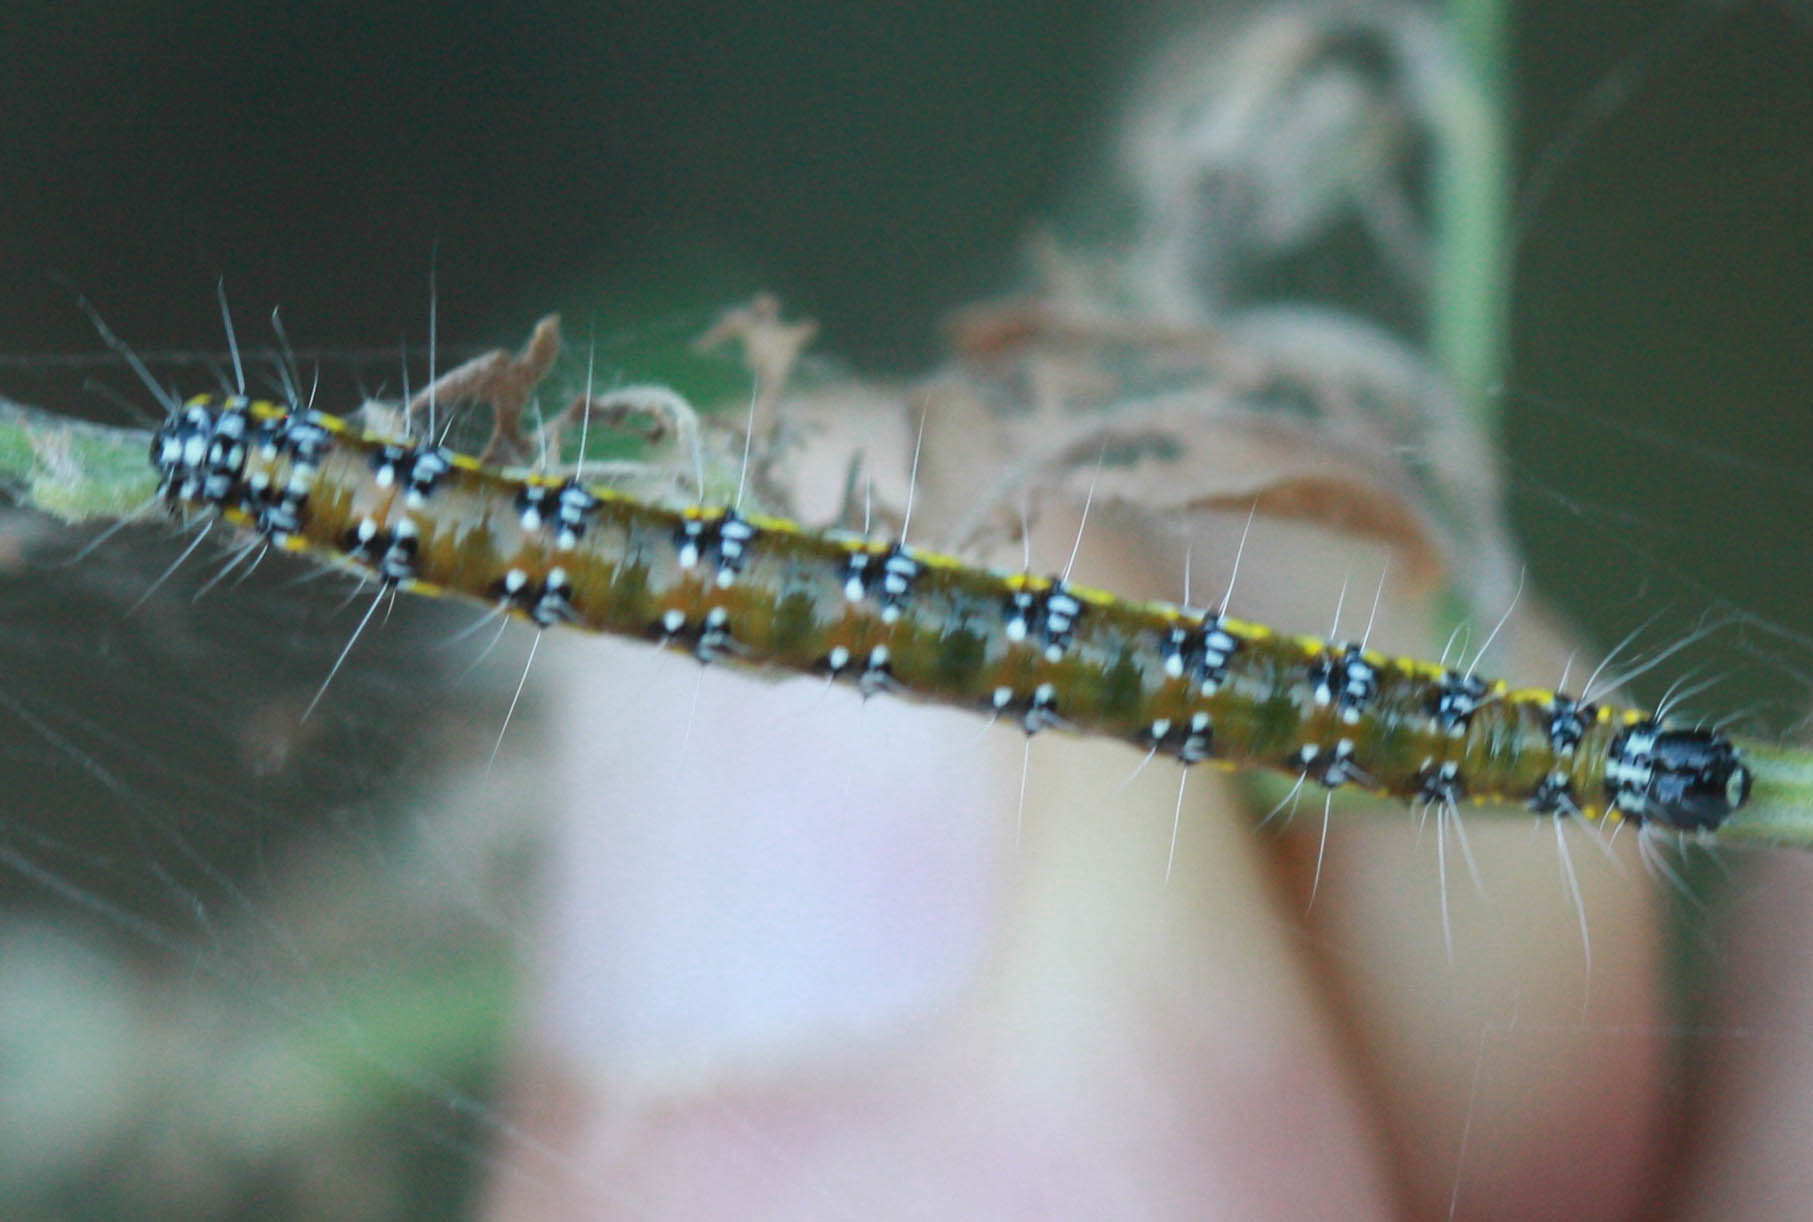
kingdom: Animalia
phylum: Arthropoda
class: Insecta
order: Lepidoptera
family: Crambidae
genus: Uresiphita
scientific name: Uresiphita reversalis
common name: Genista broom moth
